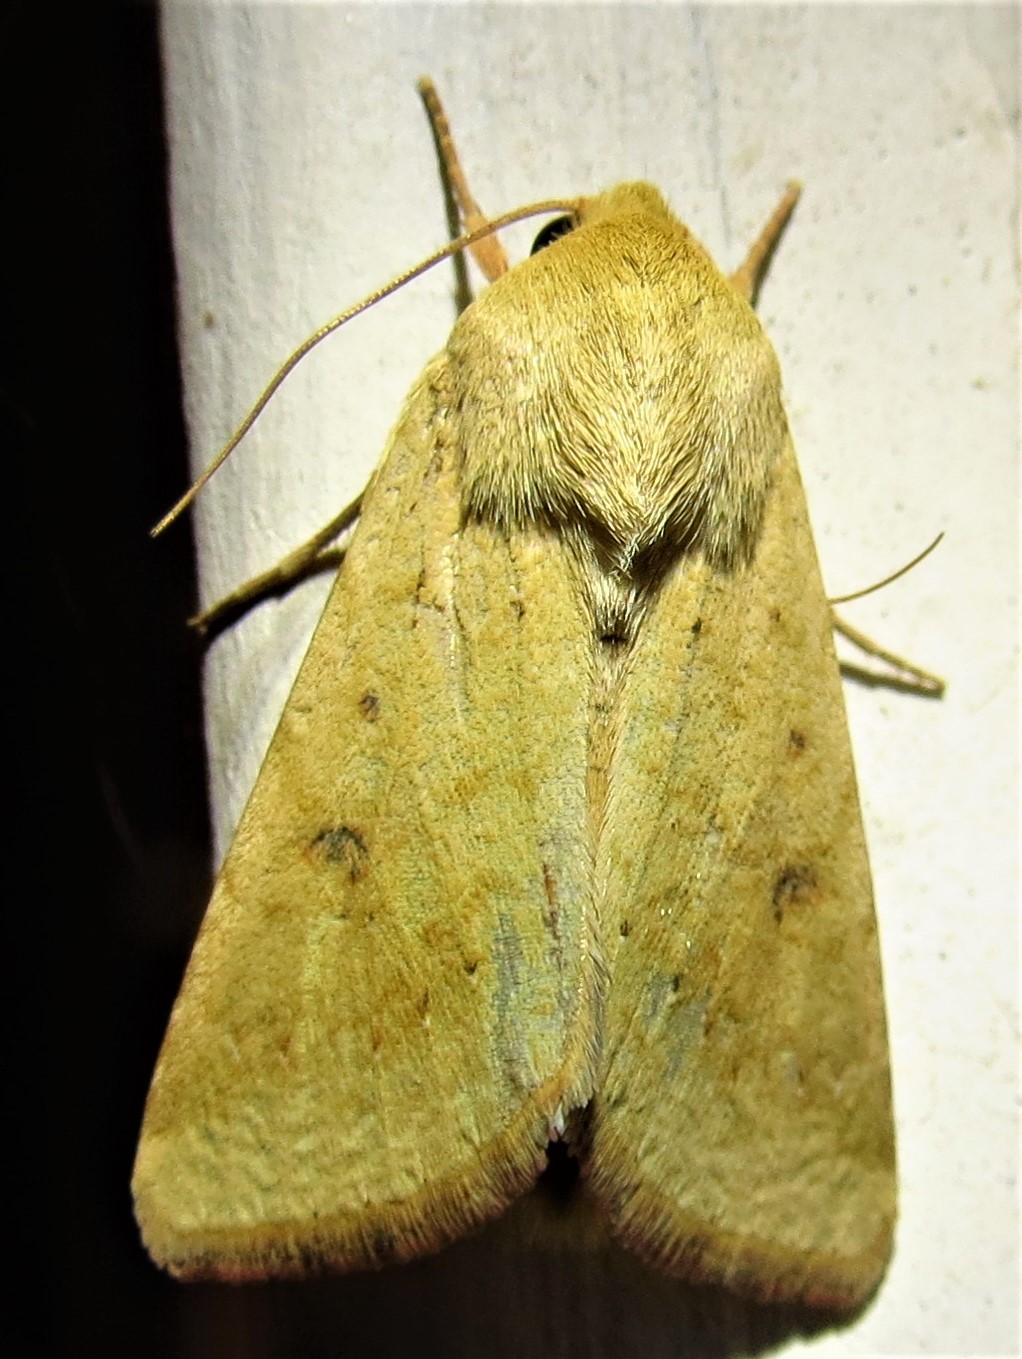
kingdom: Animalia
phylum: Arthropoda
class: Insecta
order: Lepidoptera
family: Noctuidae
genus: Helicoverpa
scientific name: Helicoverpa zea
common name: Bollworm
